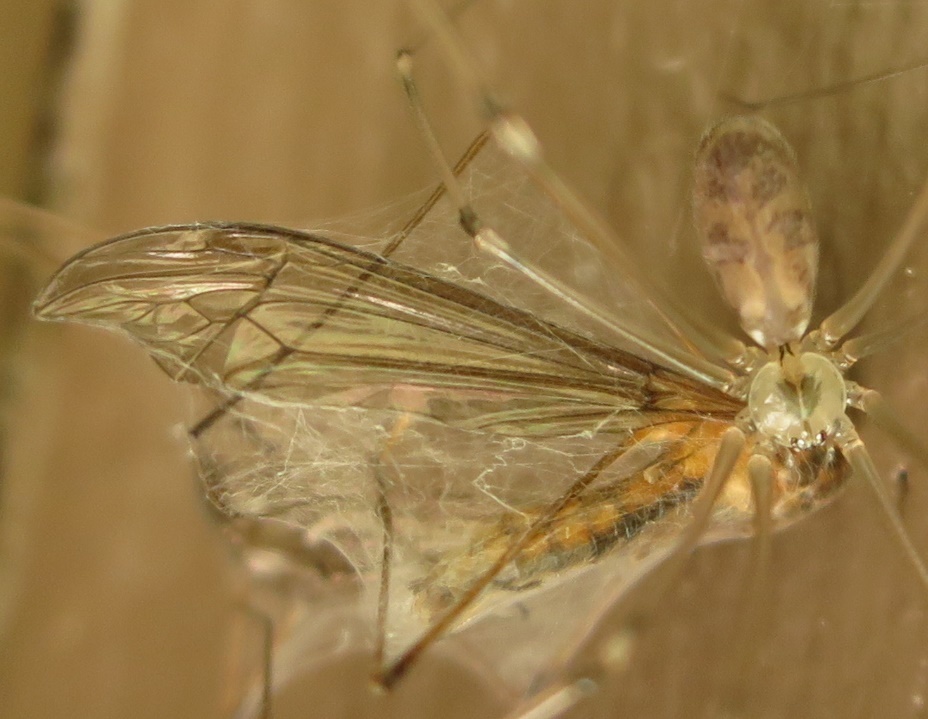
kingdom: Animalia
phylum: Arthropoda
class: Arachnida
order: Araneae
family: Pholcidae
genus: Pholcus
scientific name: Pholcus phalangioides
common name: Longbodied cellar spider
